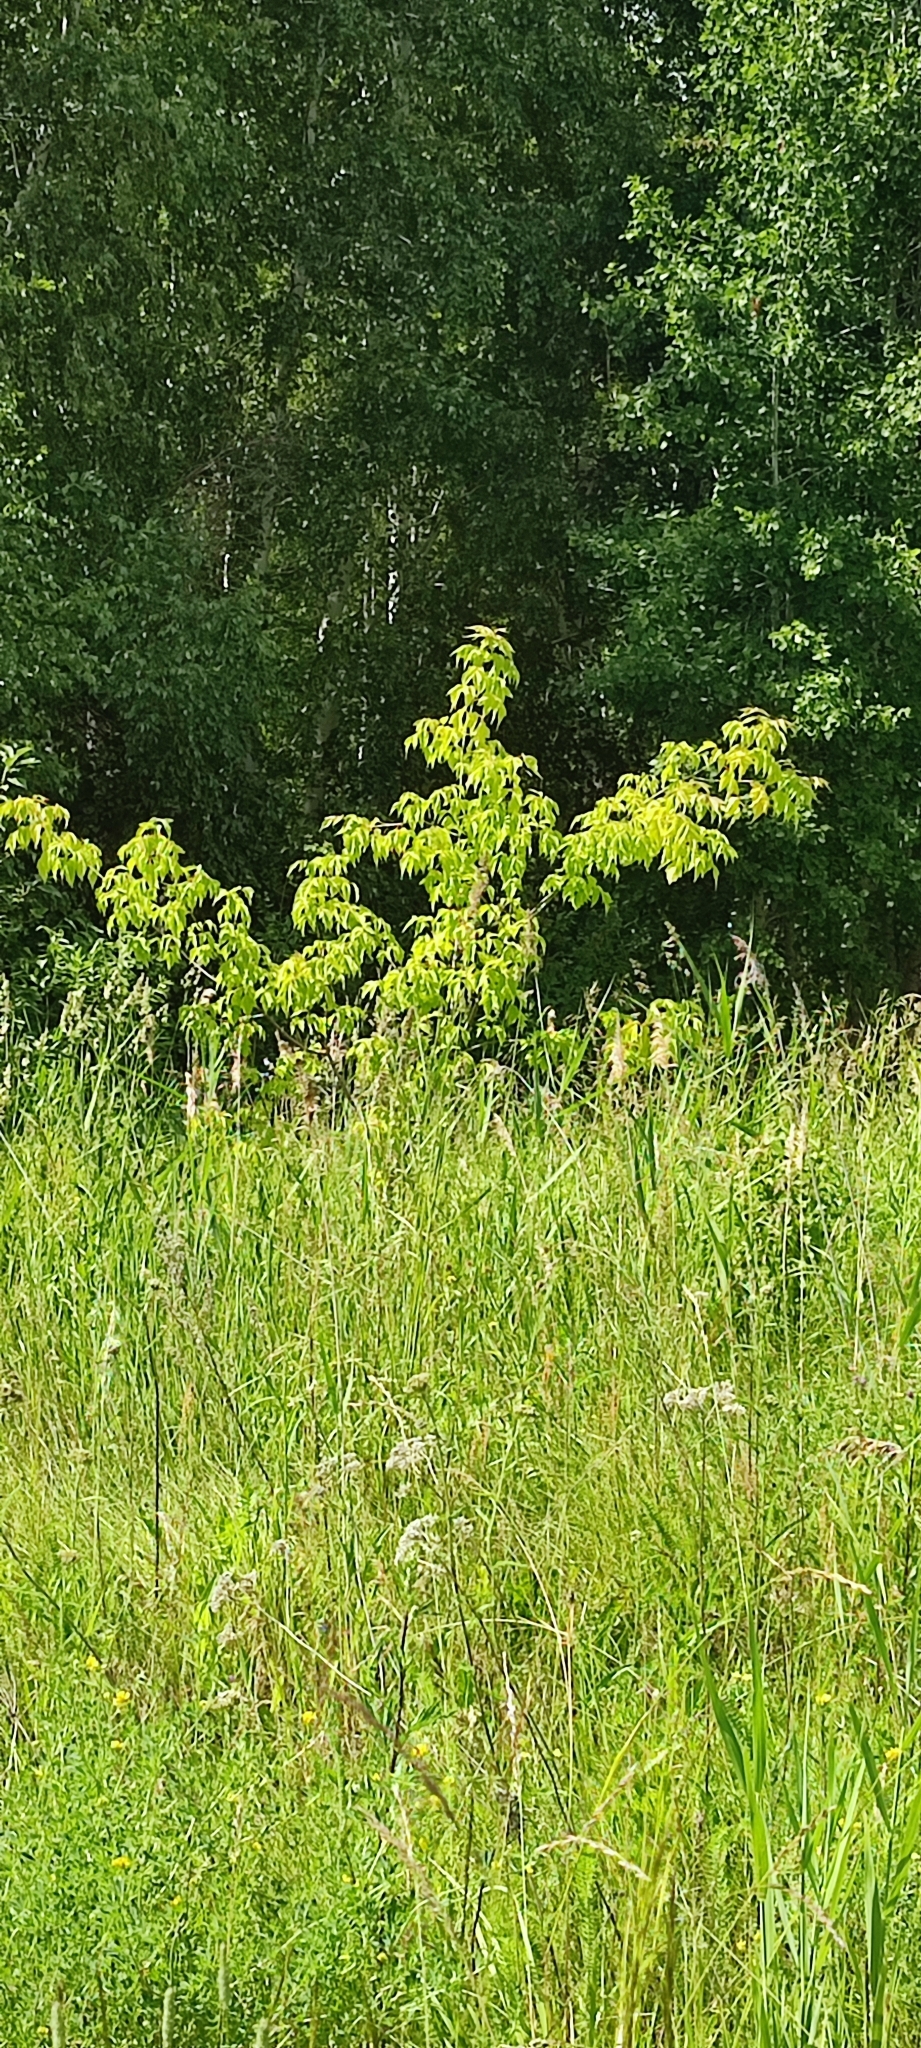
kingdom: Plantae
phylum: Tracheophyta
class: Magnoliopsida
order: Sapindales
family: Sapindaceae
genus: Acer
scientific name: Acer negundo
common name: Ashleaf maple
